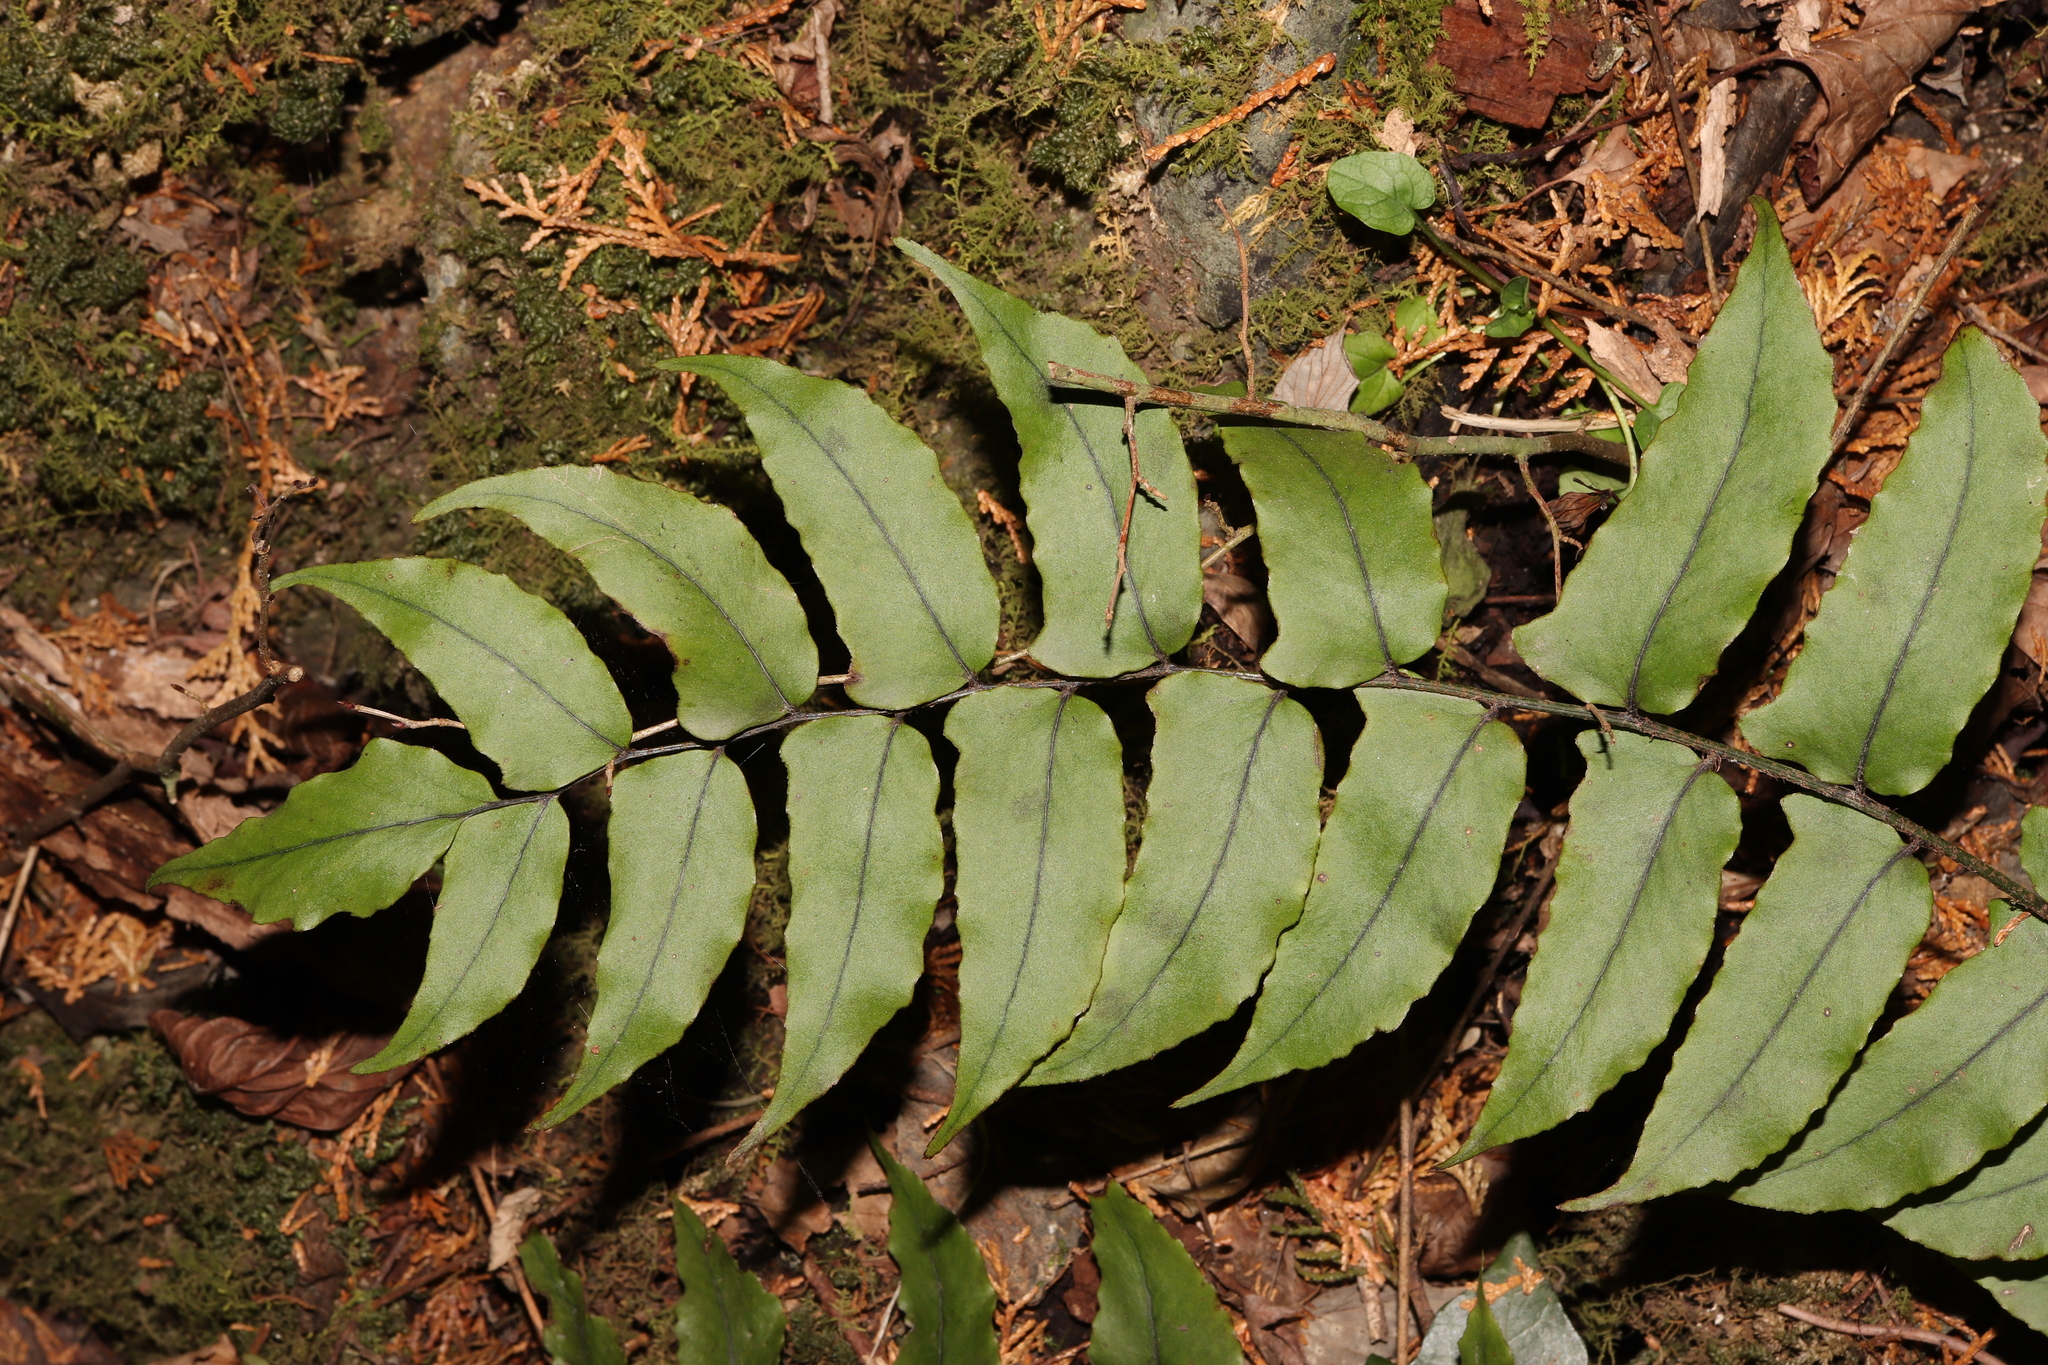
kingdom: Plantae
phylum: Tracheophyta
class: Polypodiopsida
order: Polypodiales
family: Dryopteridaceae
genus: Cyrtomium
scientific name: Cyrtomium clivicola
